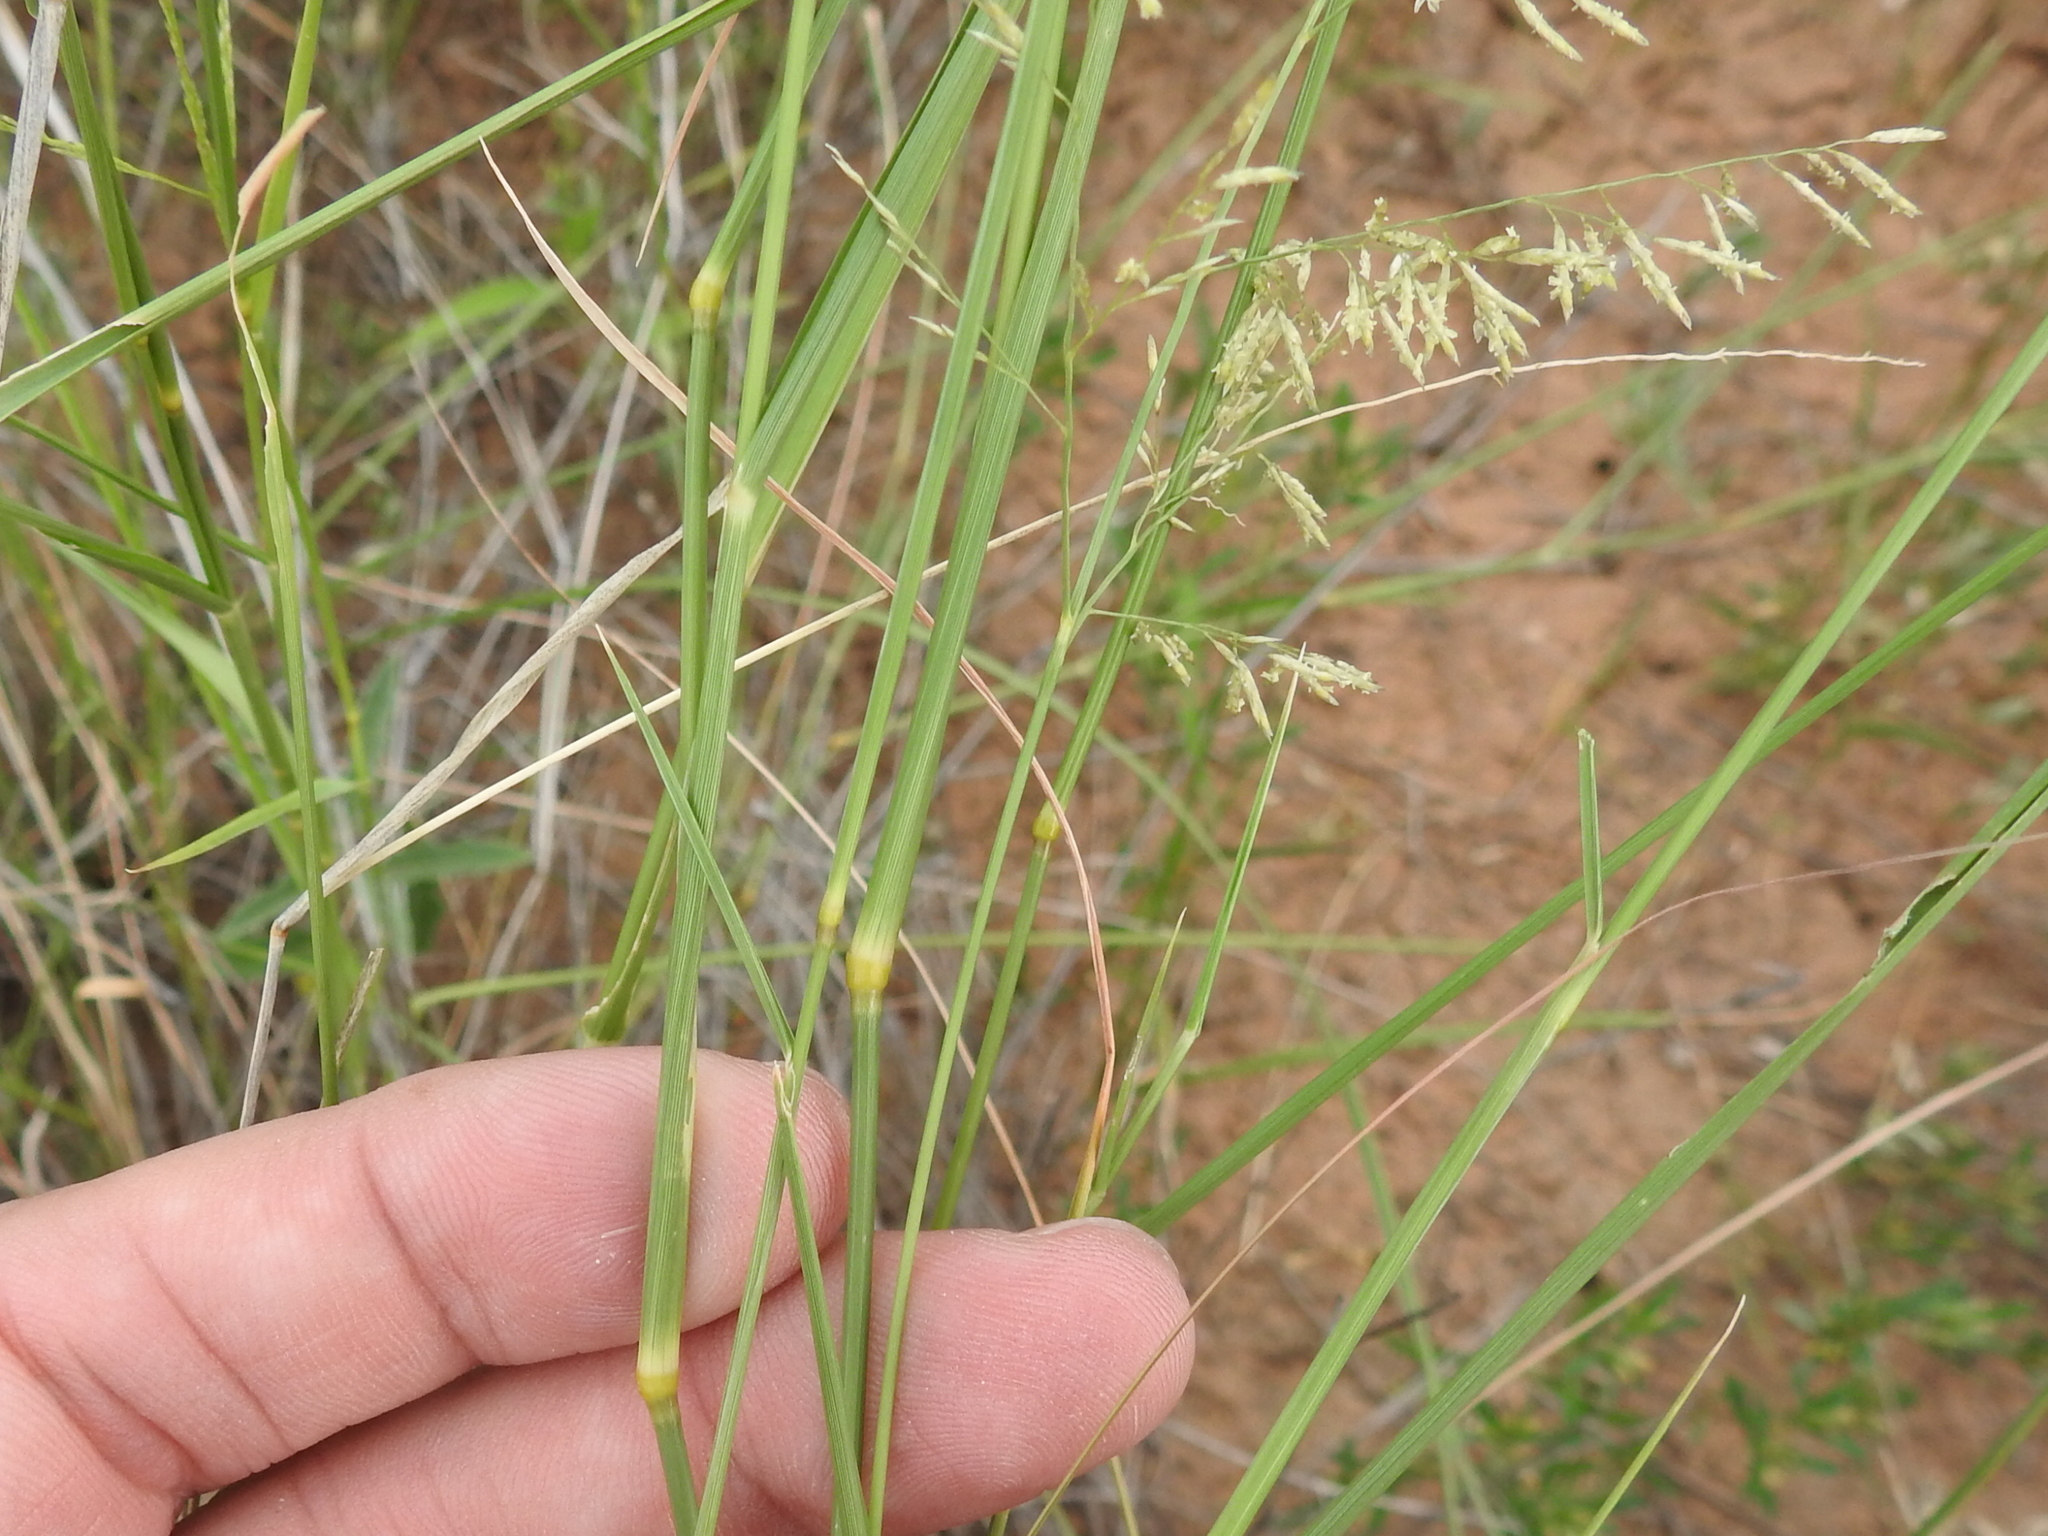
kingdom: Plantae
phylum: Tracheophyta
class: Liliopsida
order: Poales
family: Poaceae
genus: Eragrostis
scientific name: Eragrostis lehmanniana
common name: Lehmann lovegrass
